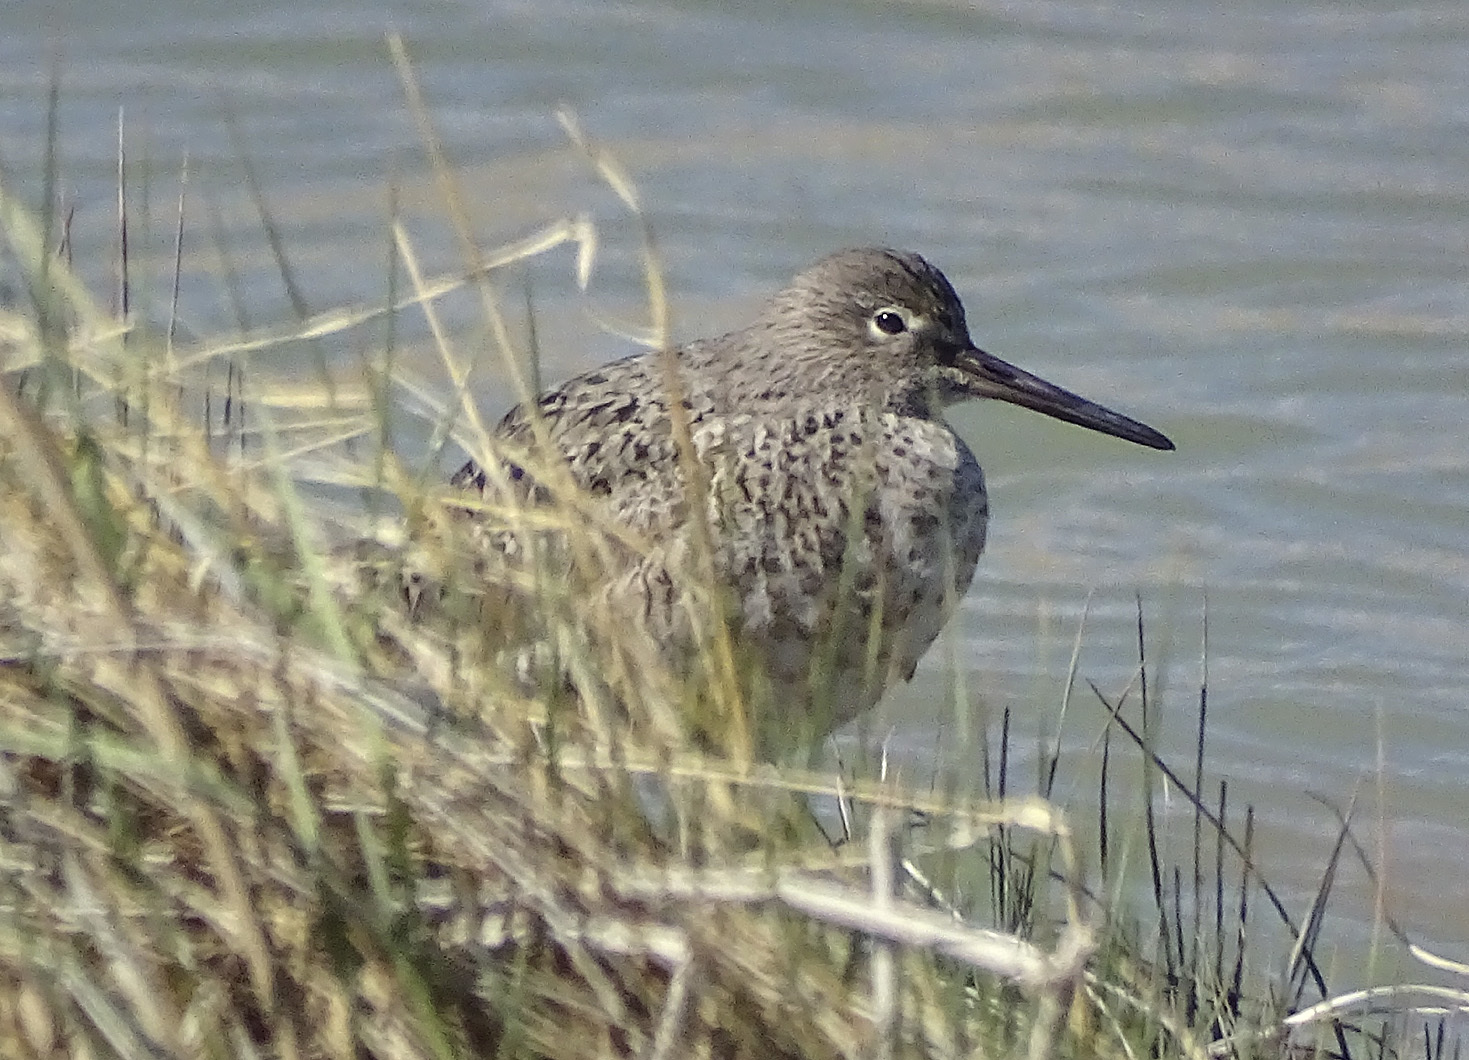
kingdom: Animalia
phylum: Chordata
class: Aves
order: Charadriiformes
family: Scolopacidae
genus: Tringa
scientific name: Tringa semipalmata
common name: Willet
